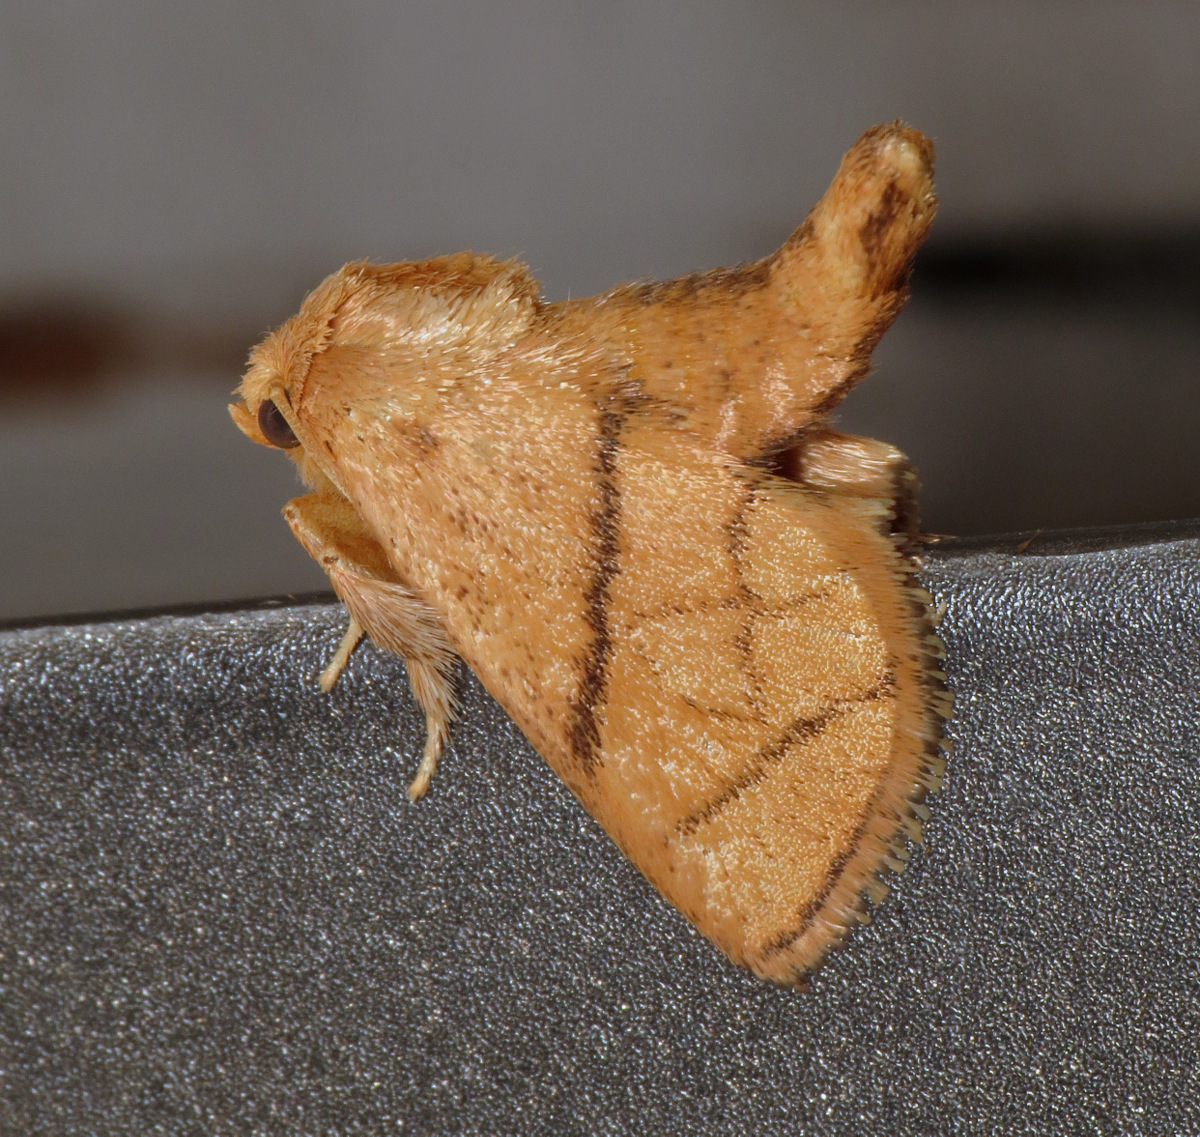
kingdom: Animalia
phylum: Arthropoda
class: Insecta
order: Lepidoptera
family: Limacodidae
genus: Apoda
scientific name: Apoda y-inversa
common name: Yellow-collared slug moth
